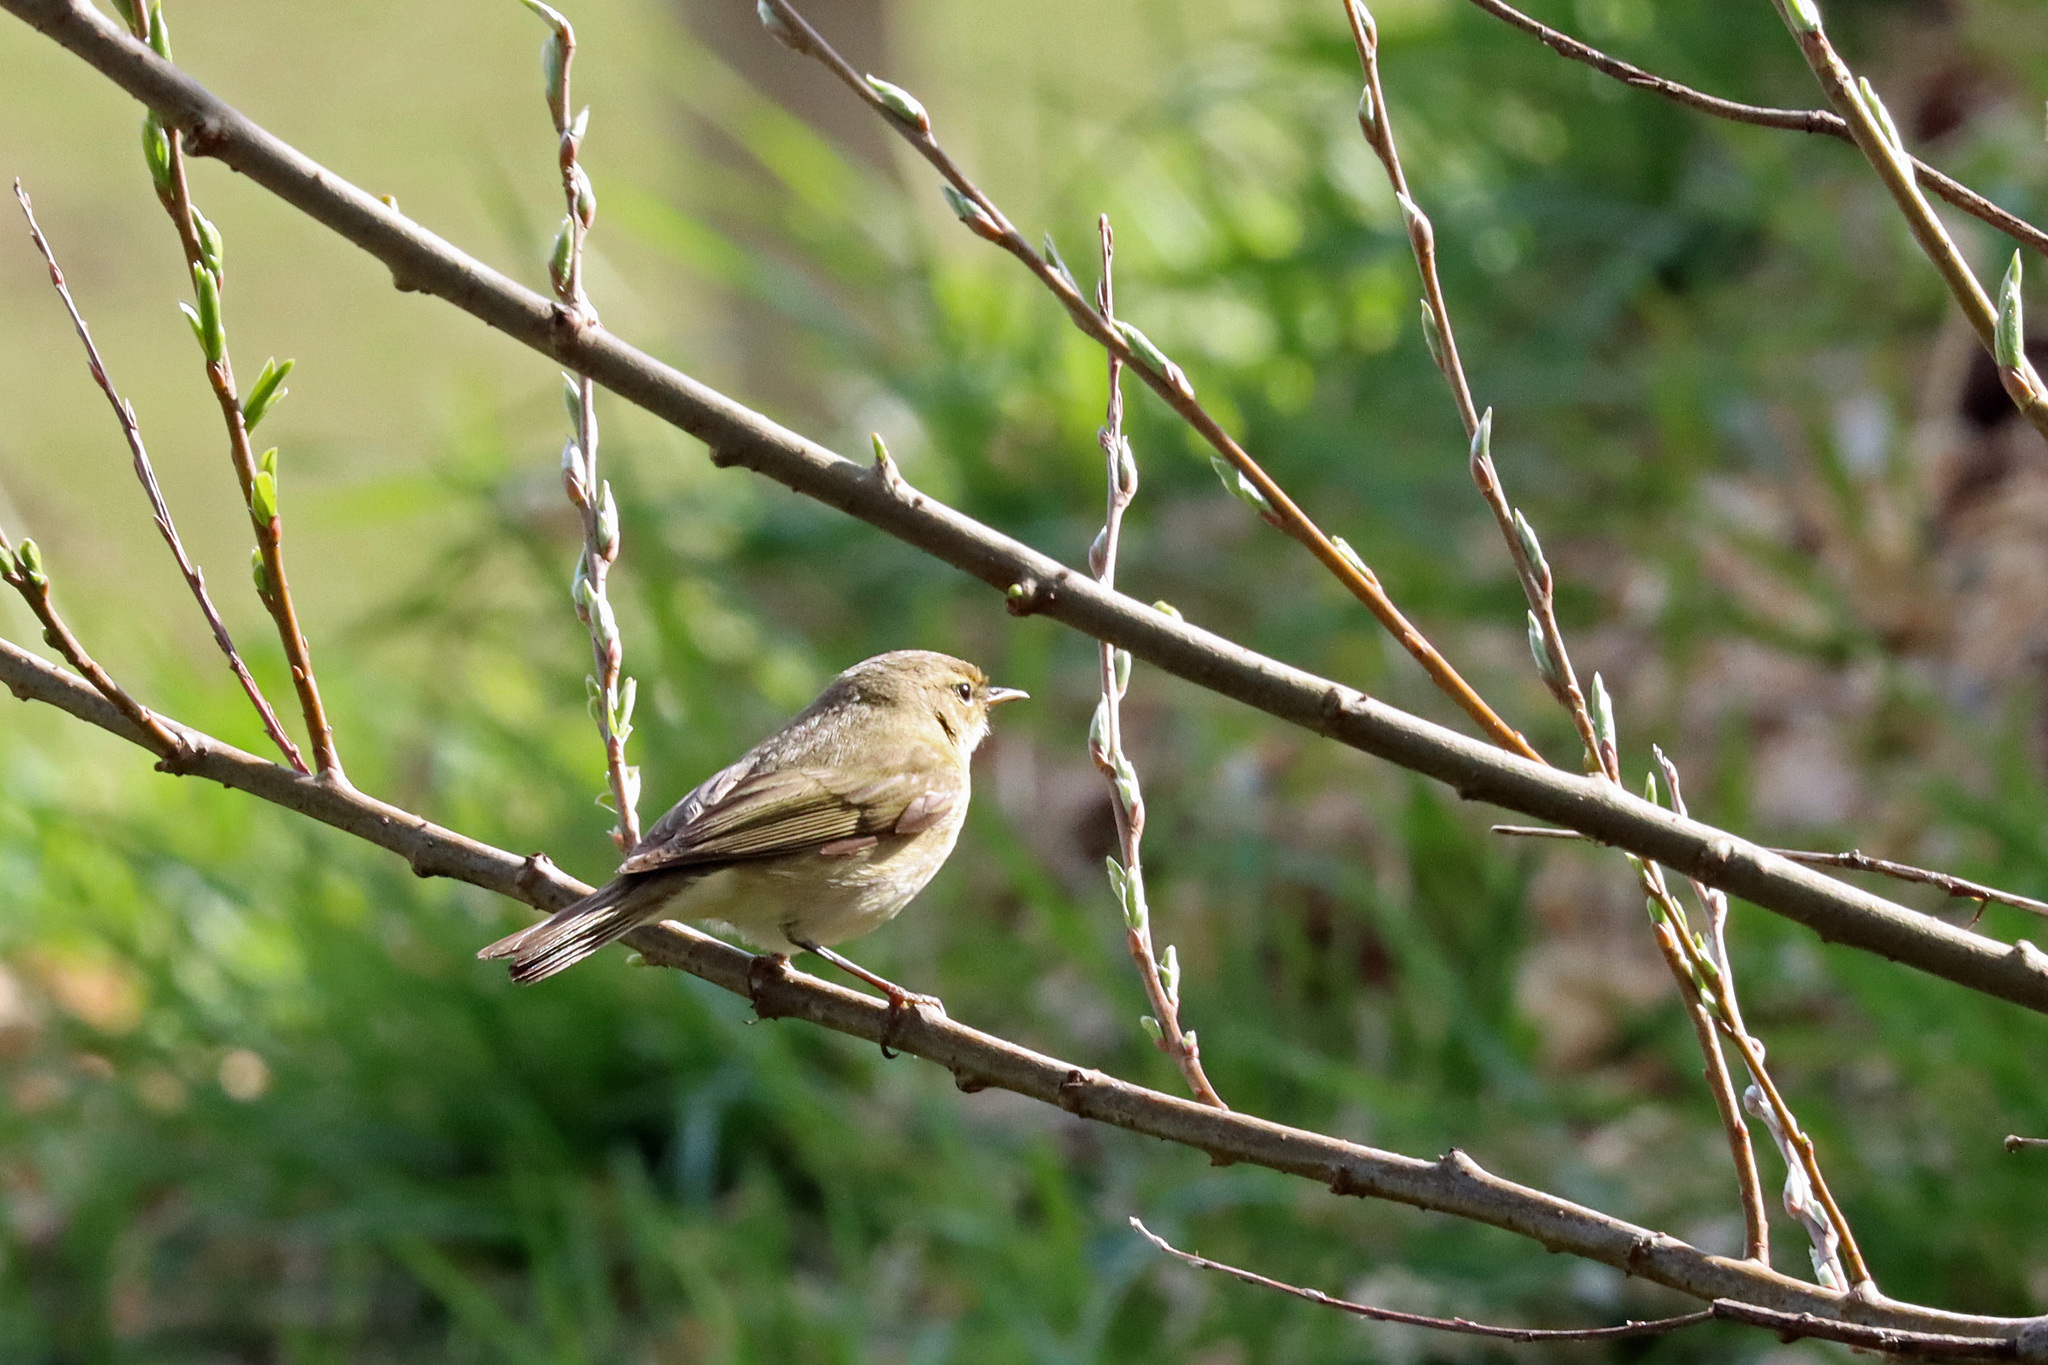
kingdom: Animalia
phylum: Chordata
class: Aves
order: Passeriformes
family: Phylloscopidae
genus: Phylloscopus
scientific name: Phylloscopus collybita
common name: Common chiffchaff
